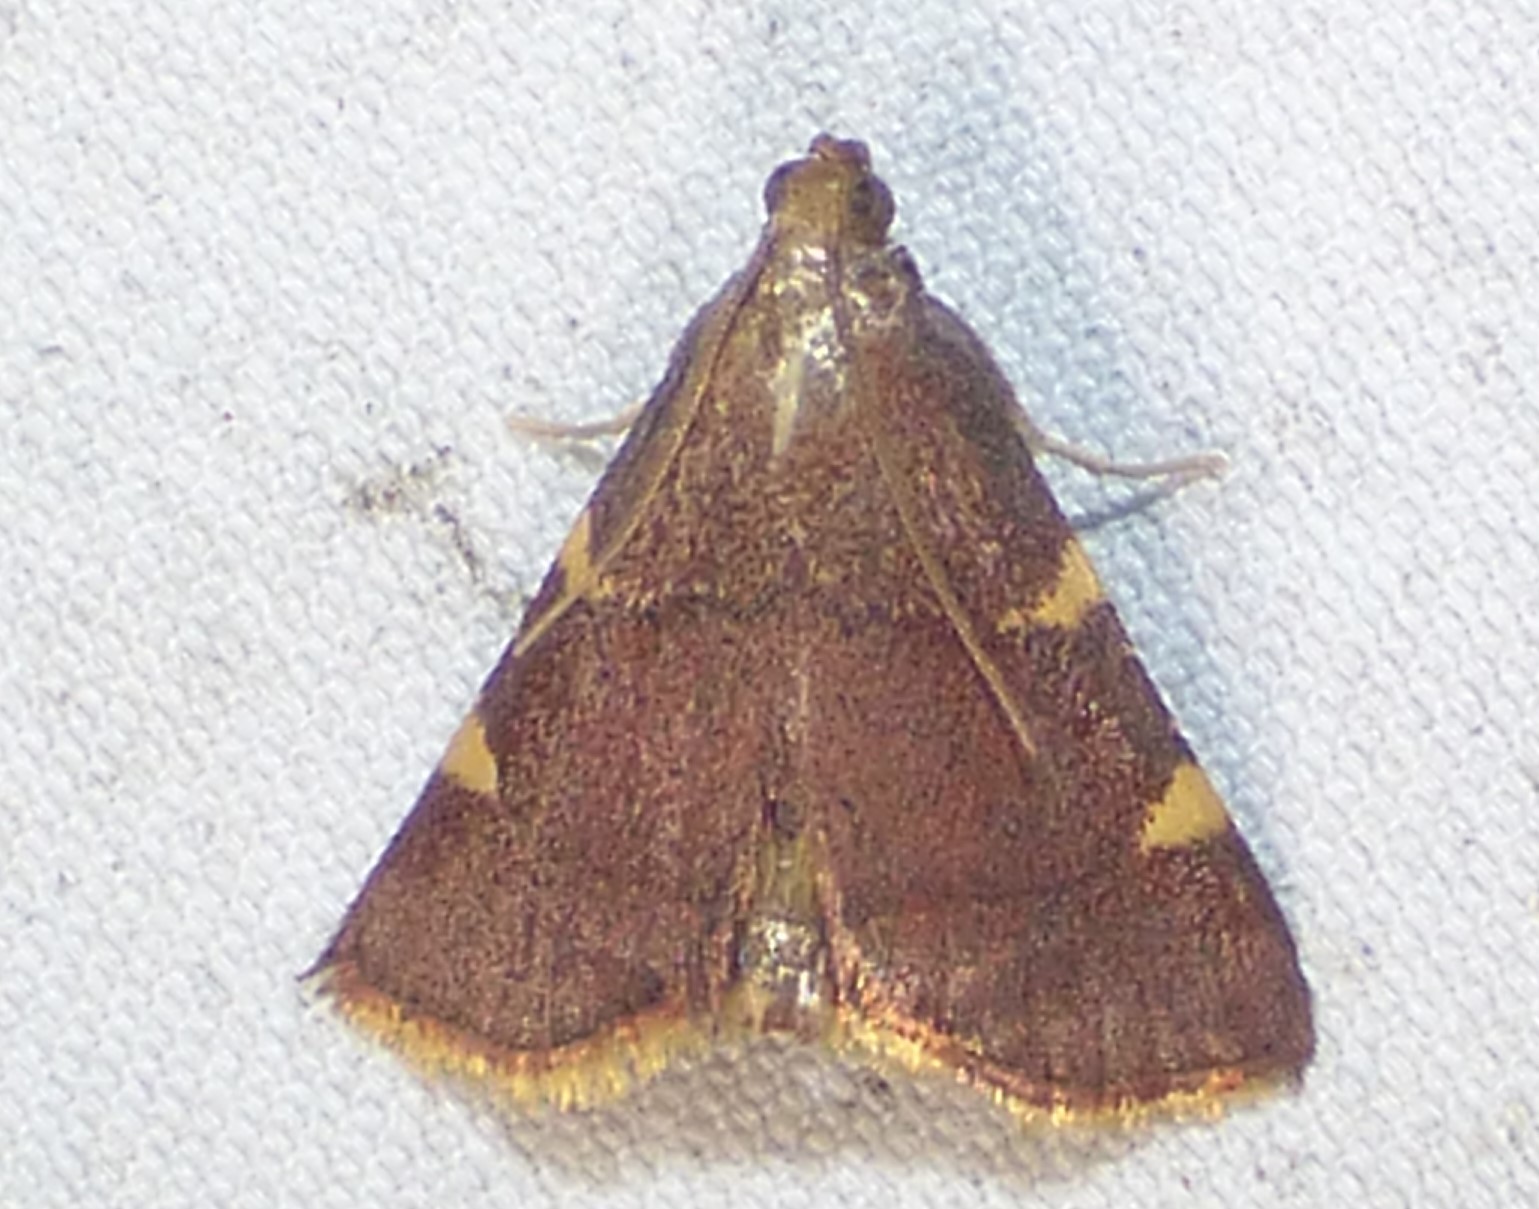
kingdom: Animalia
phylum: Arthropoda
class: Insecta
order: Lepidoptera
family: Pyralidae
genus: Hypsopygia
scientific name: Hypsopygia olinalis
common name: Yellow-fringed dolichomia moth
